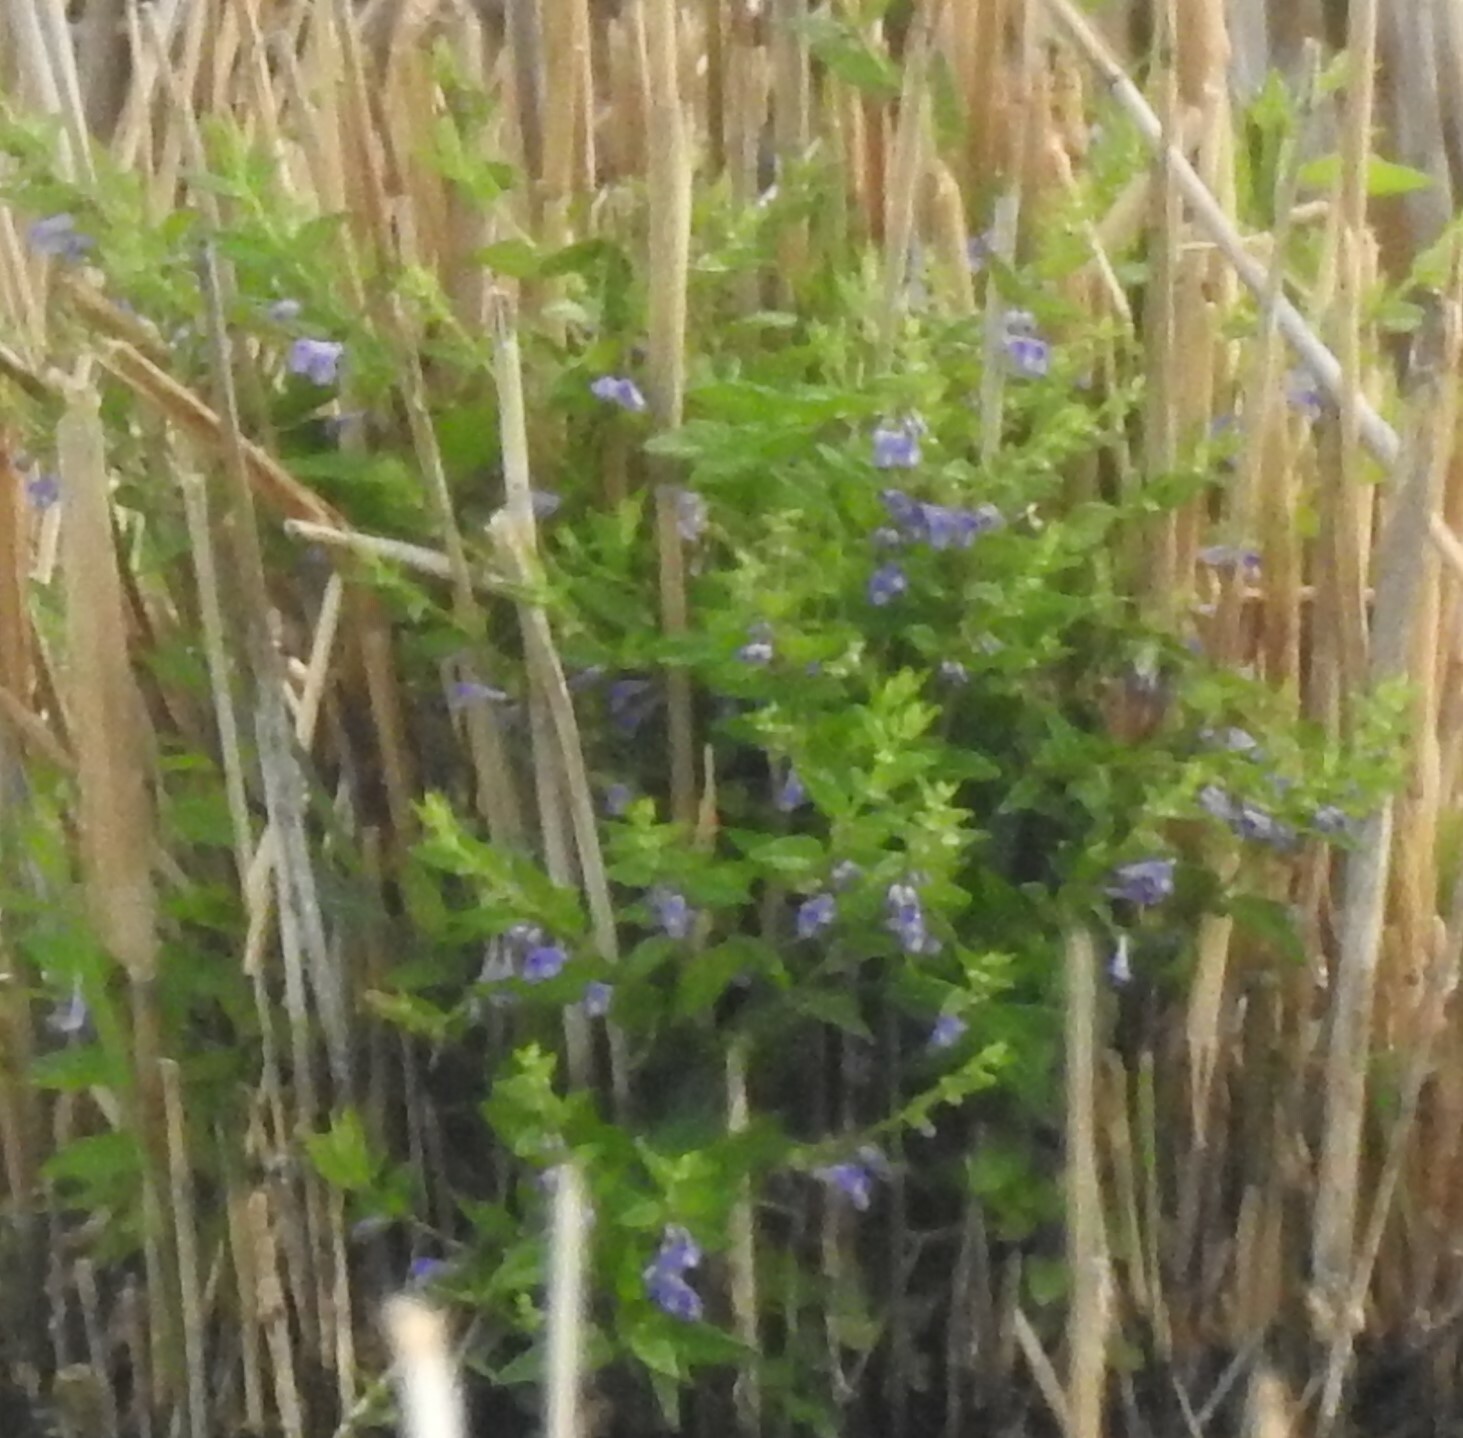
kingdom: Plantae
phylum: Tracheophyta
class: Magnoliopsida
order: Lamiales
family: Lamiaceae
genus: Scutellaria
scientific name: Scutellaria galericulata
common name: Skullcap
